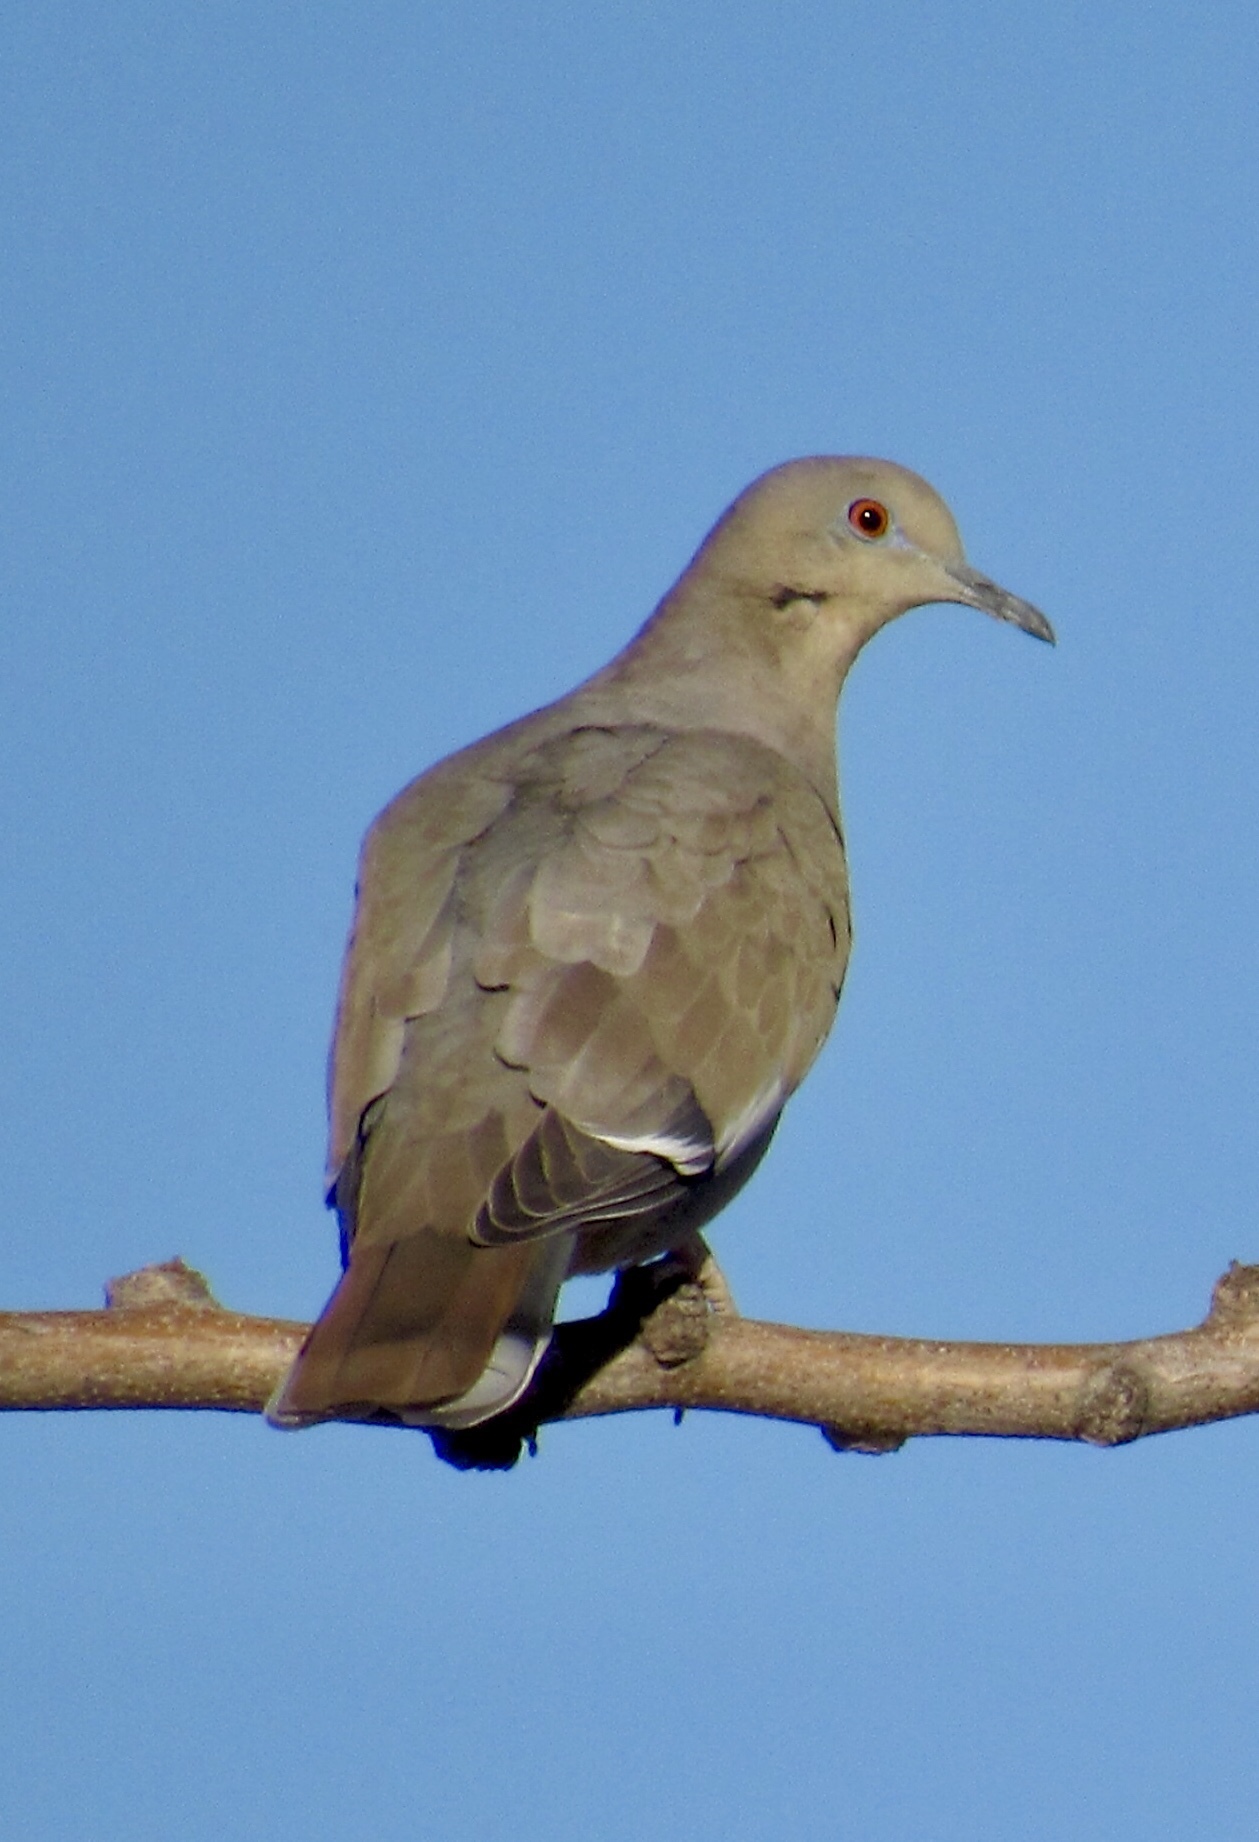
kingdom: Animalia
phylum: Chordata
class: Aves
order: Columbiformes
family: Columbidae
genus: Zenaida
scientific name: Zenaida asiatica
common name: White-winged dove
